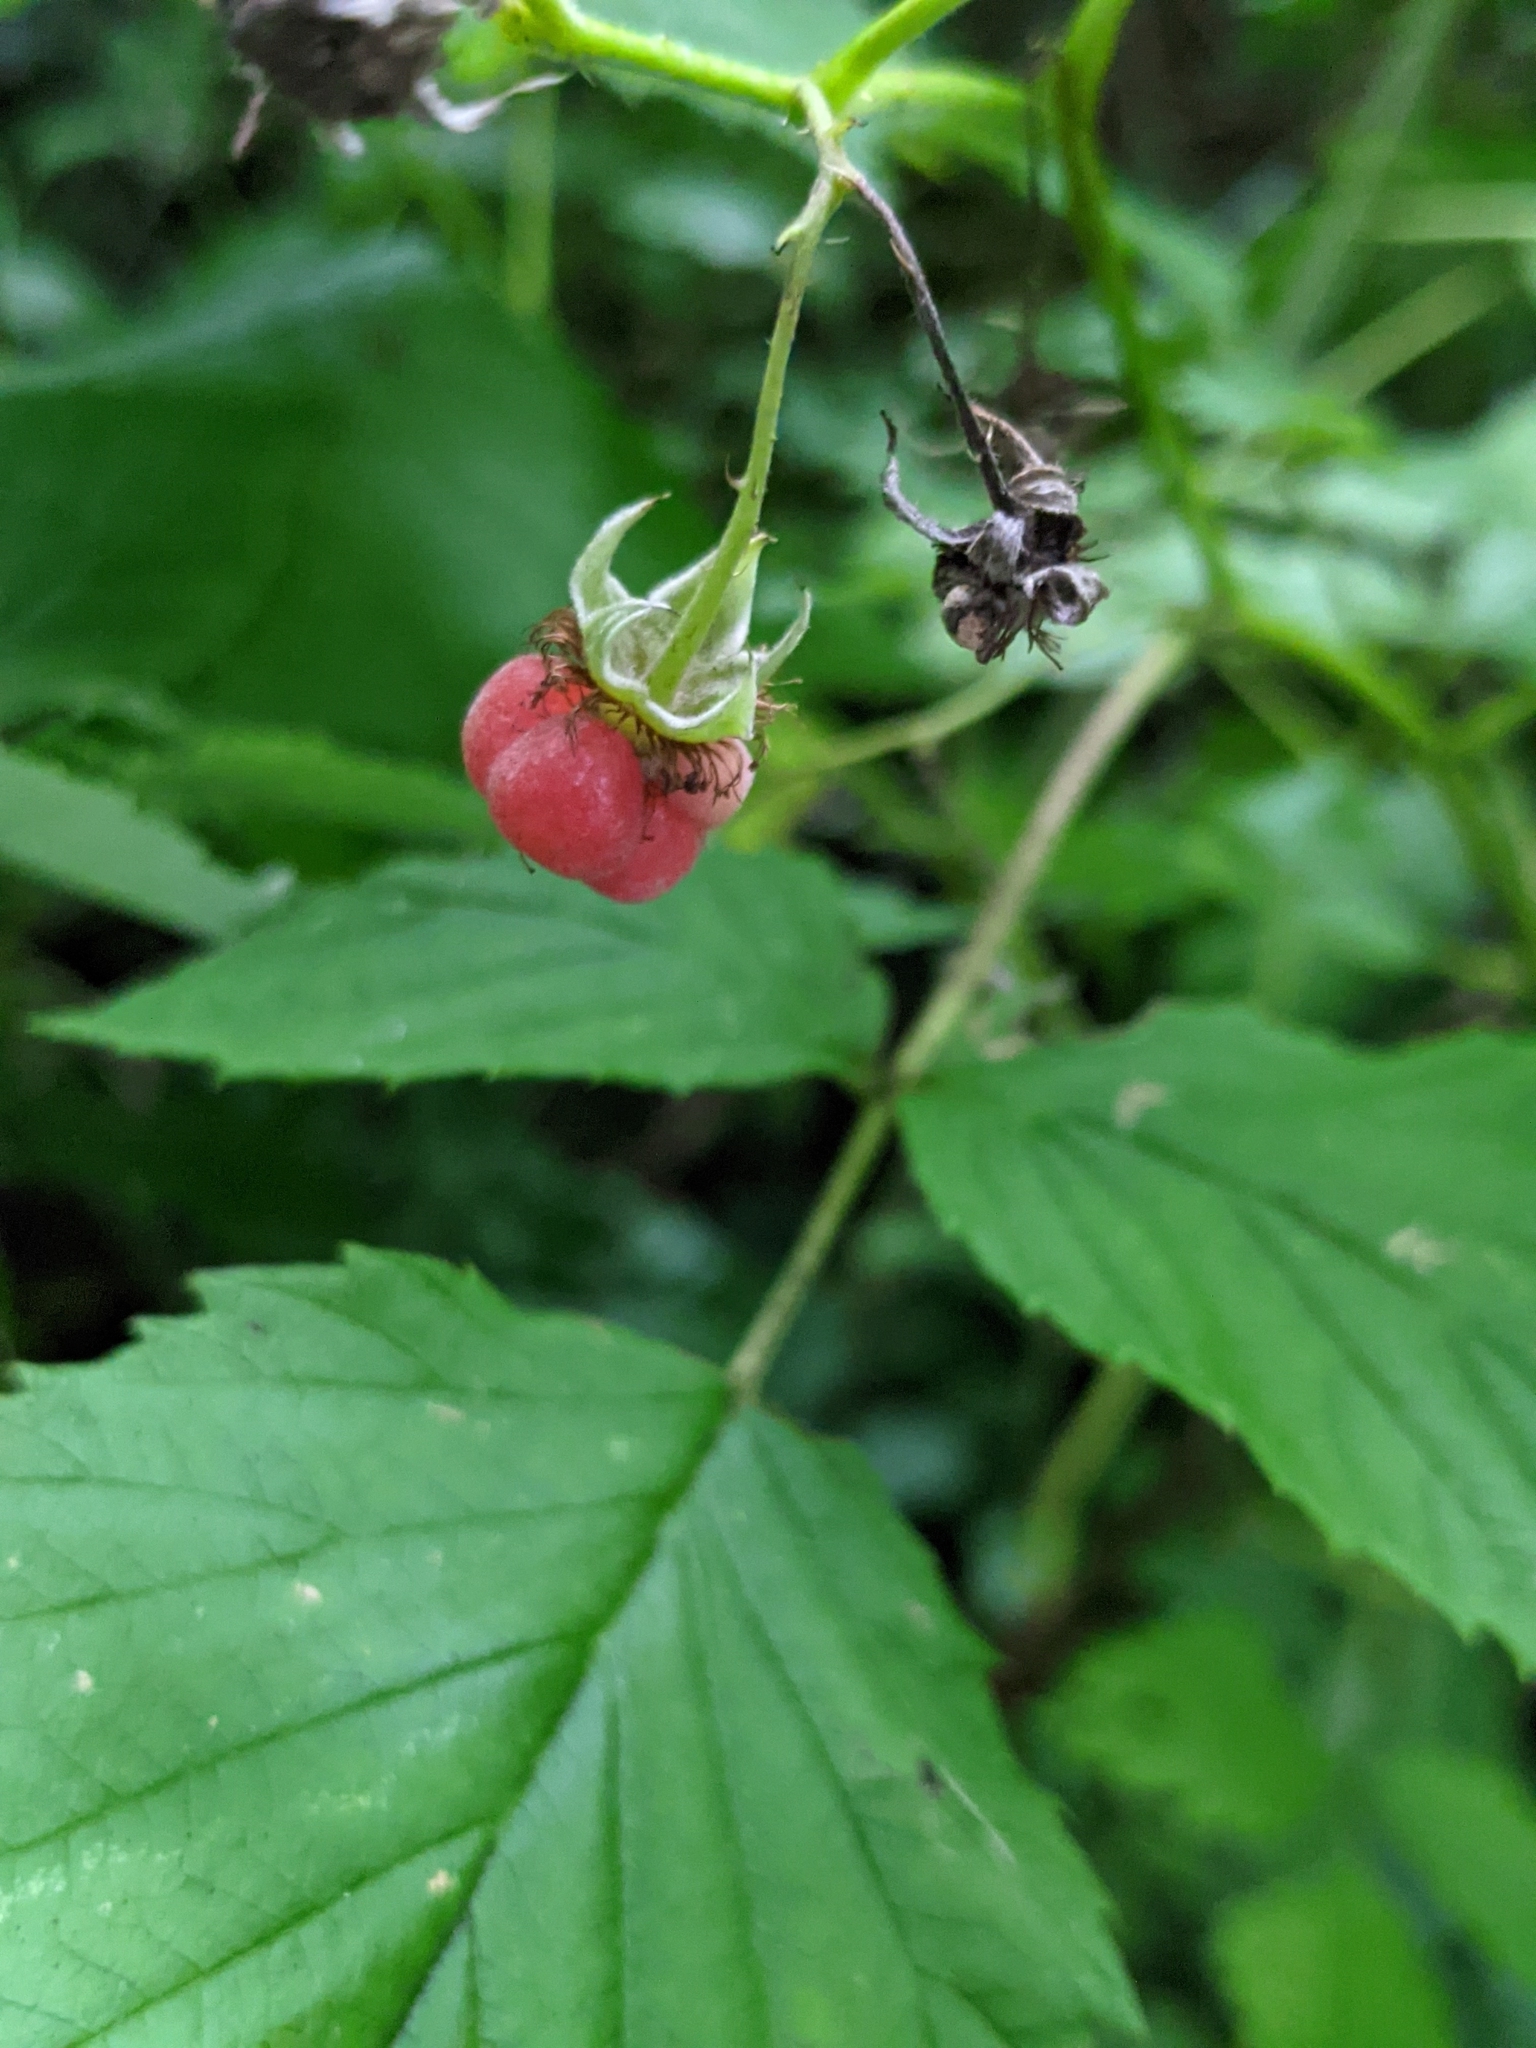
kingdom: Plantae
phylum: Tracheophyta
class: Magnoliopsida
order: Rosales
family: Rosaceae
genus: Rubus
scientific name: Rubus idaeus
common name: Raspberry
